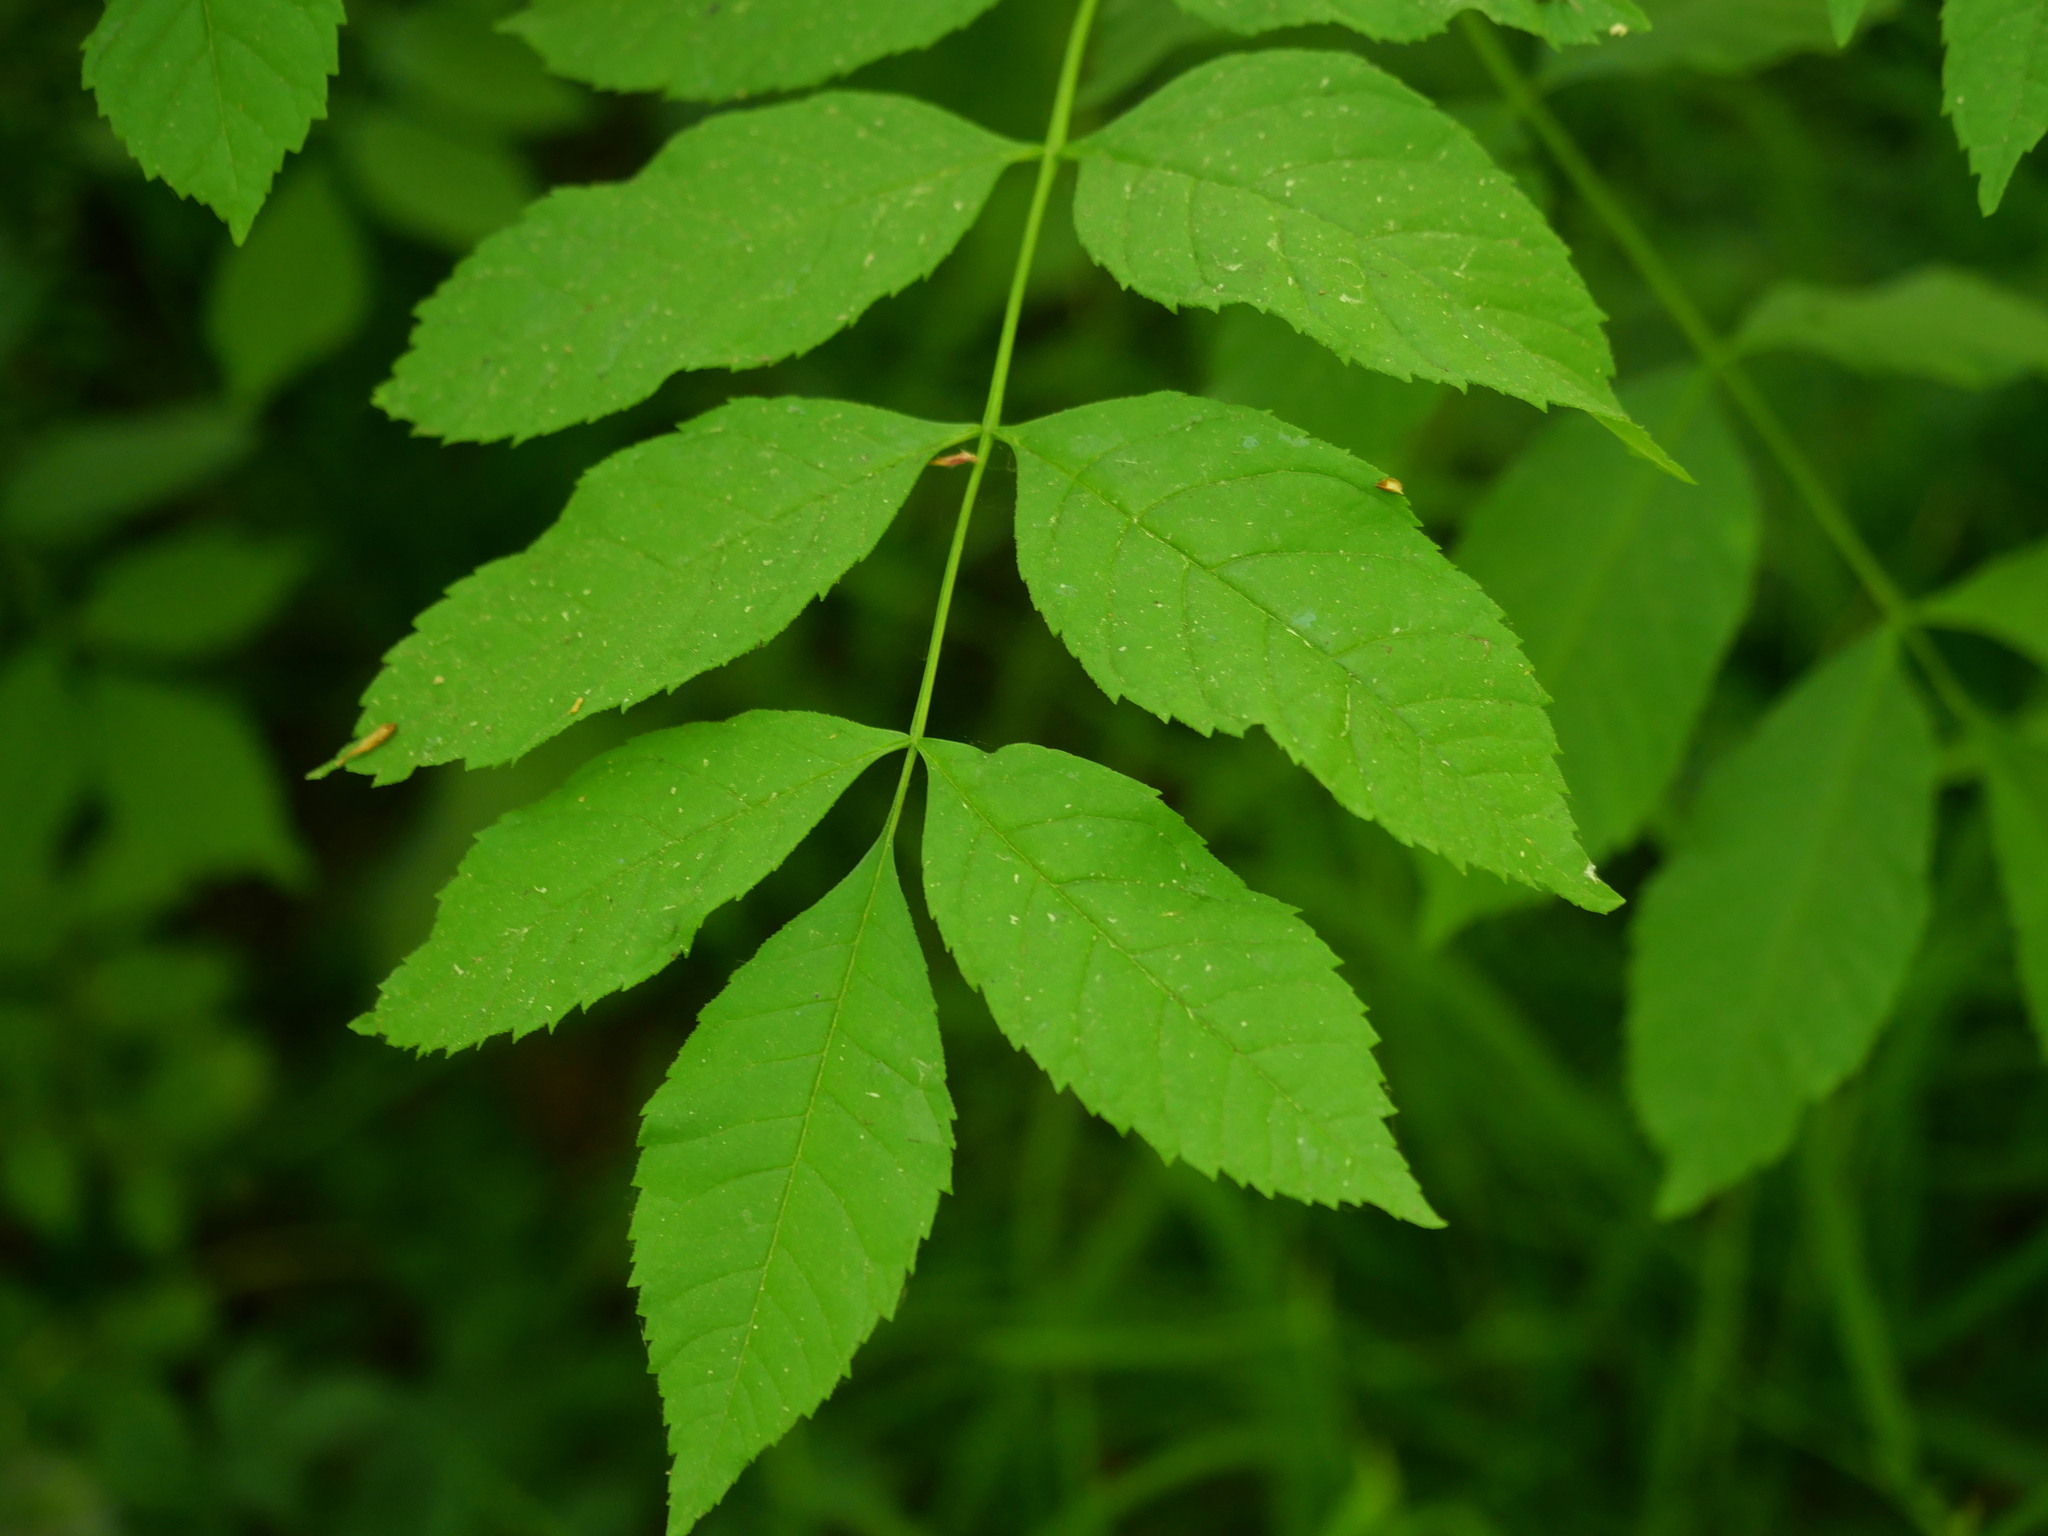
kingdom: Plantae
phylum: Tracheophyta
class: Magnoliopsida
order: Lamiales
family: Oleaceae
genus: Fraxinus
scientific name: Fraxinus excelsior
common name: European ash
